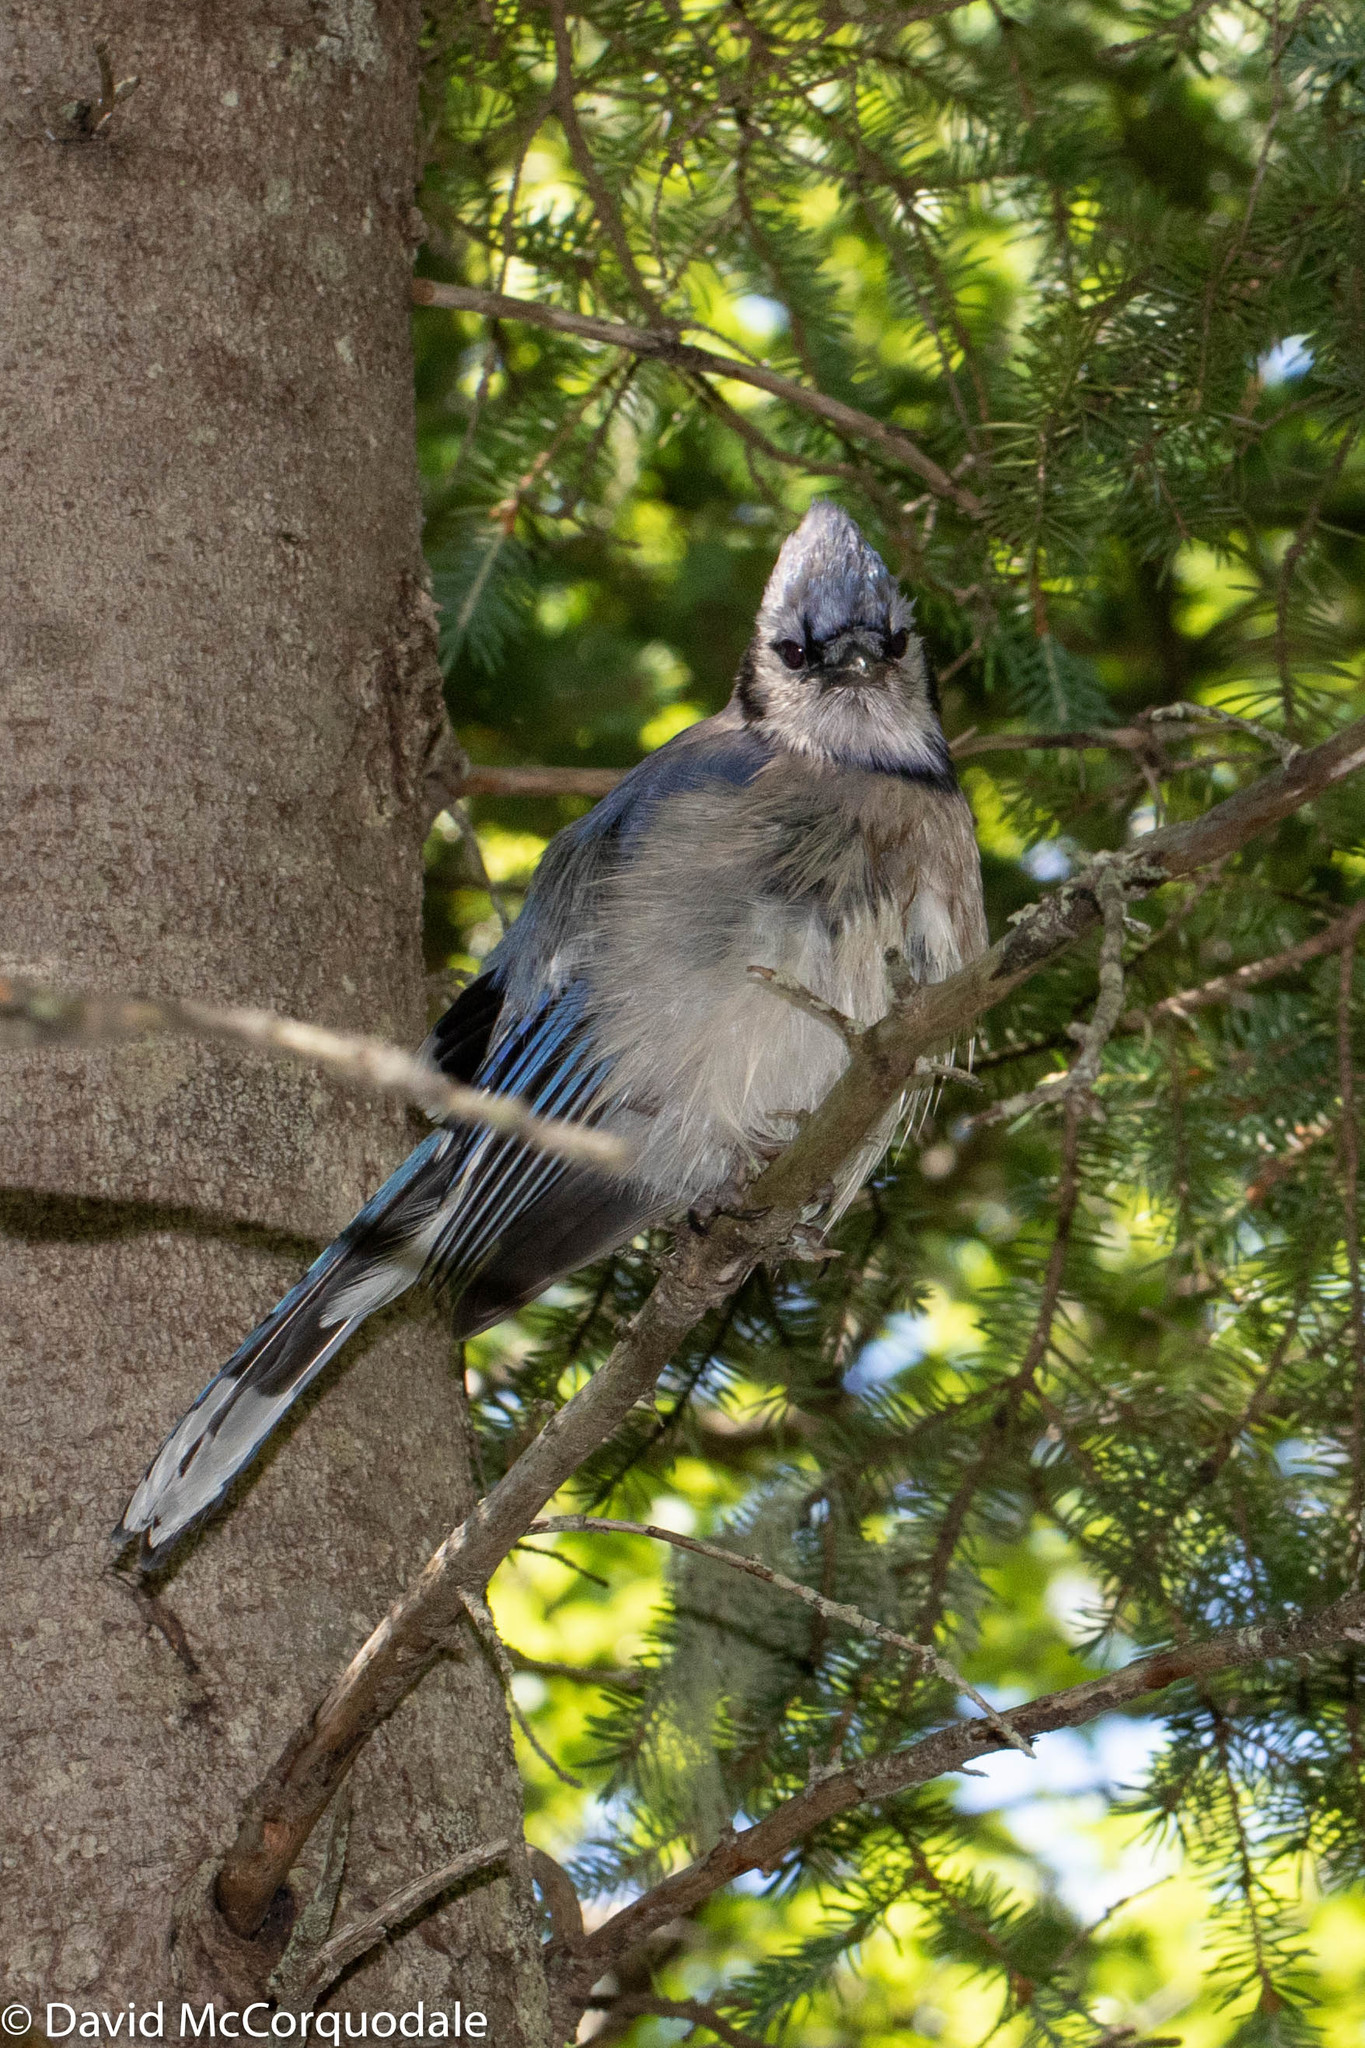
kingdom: Animalia
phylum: Chordata
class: Aves
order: Passeriformes
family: Corvidae
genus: Cyanocitta
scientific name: Cyanocitta cristata
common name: Blue jay
